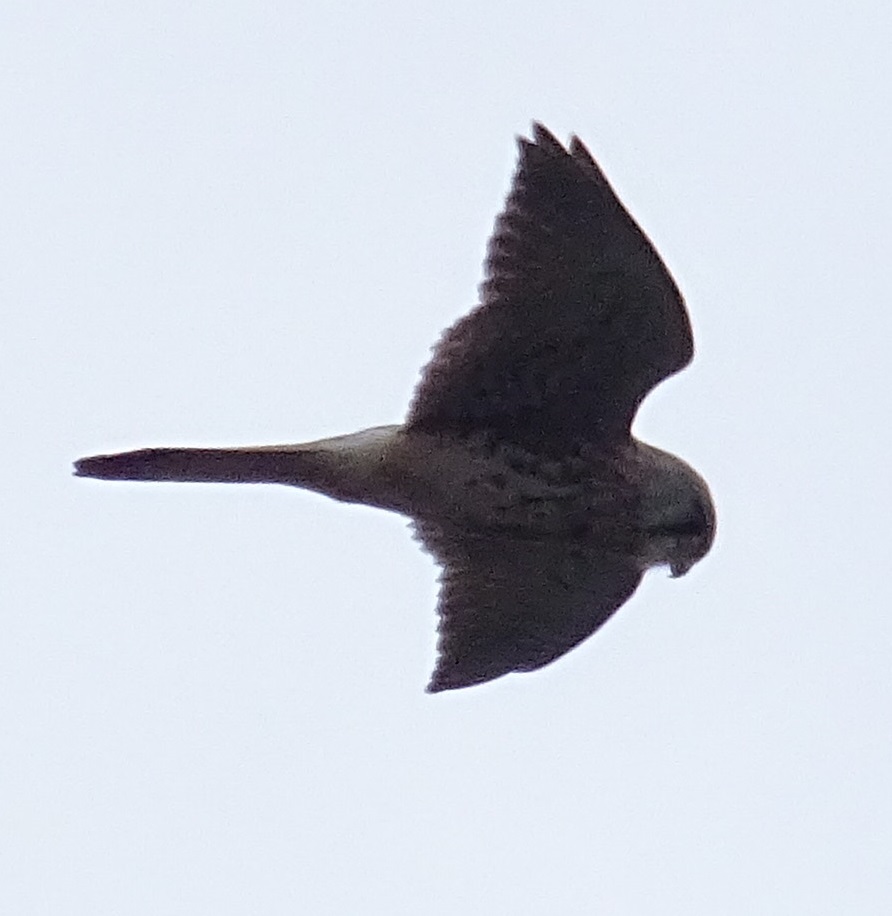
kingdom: Animalia
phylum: Chordata
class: Aves
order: Falconiformes
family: Falconidae
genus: Falco
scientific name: Falco tinnunculus
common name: Common kestrel
